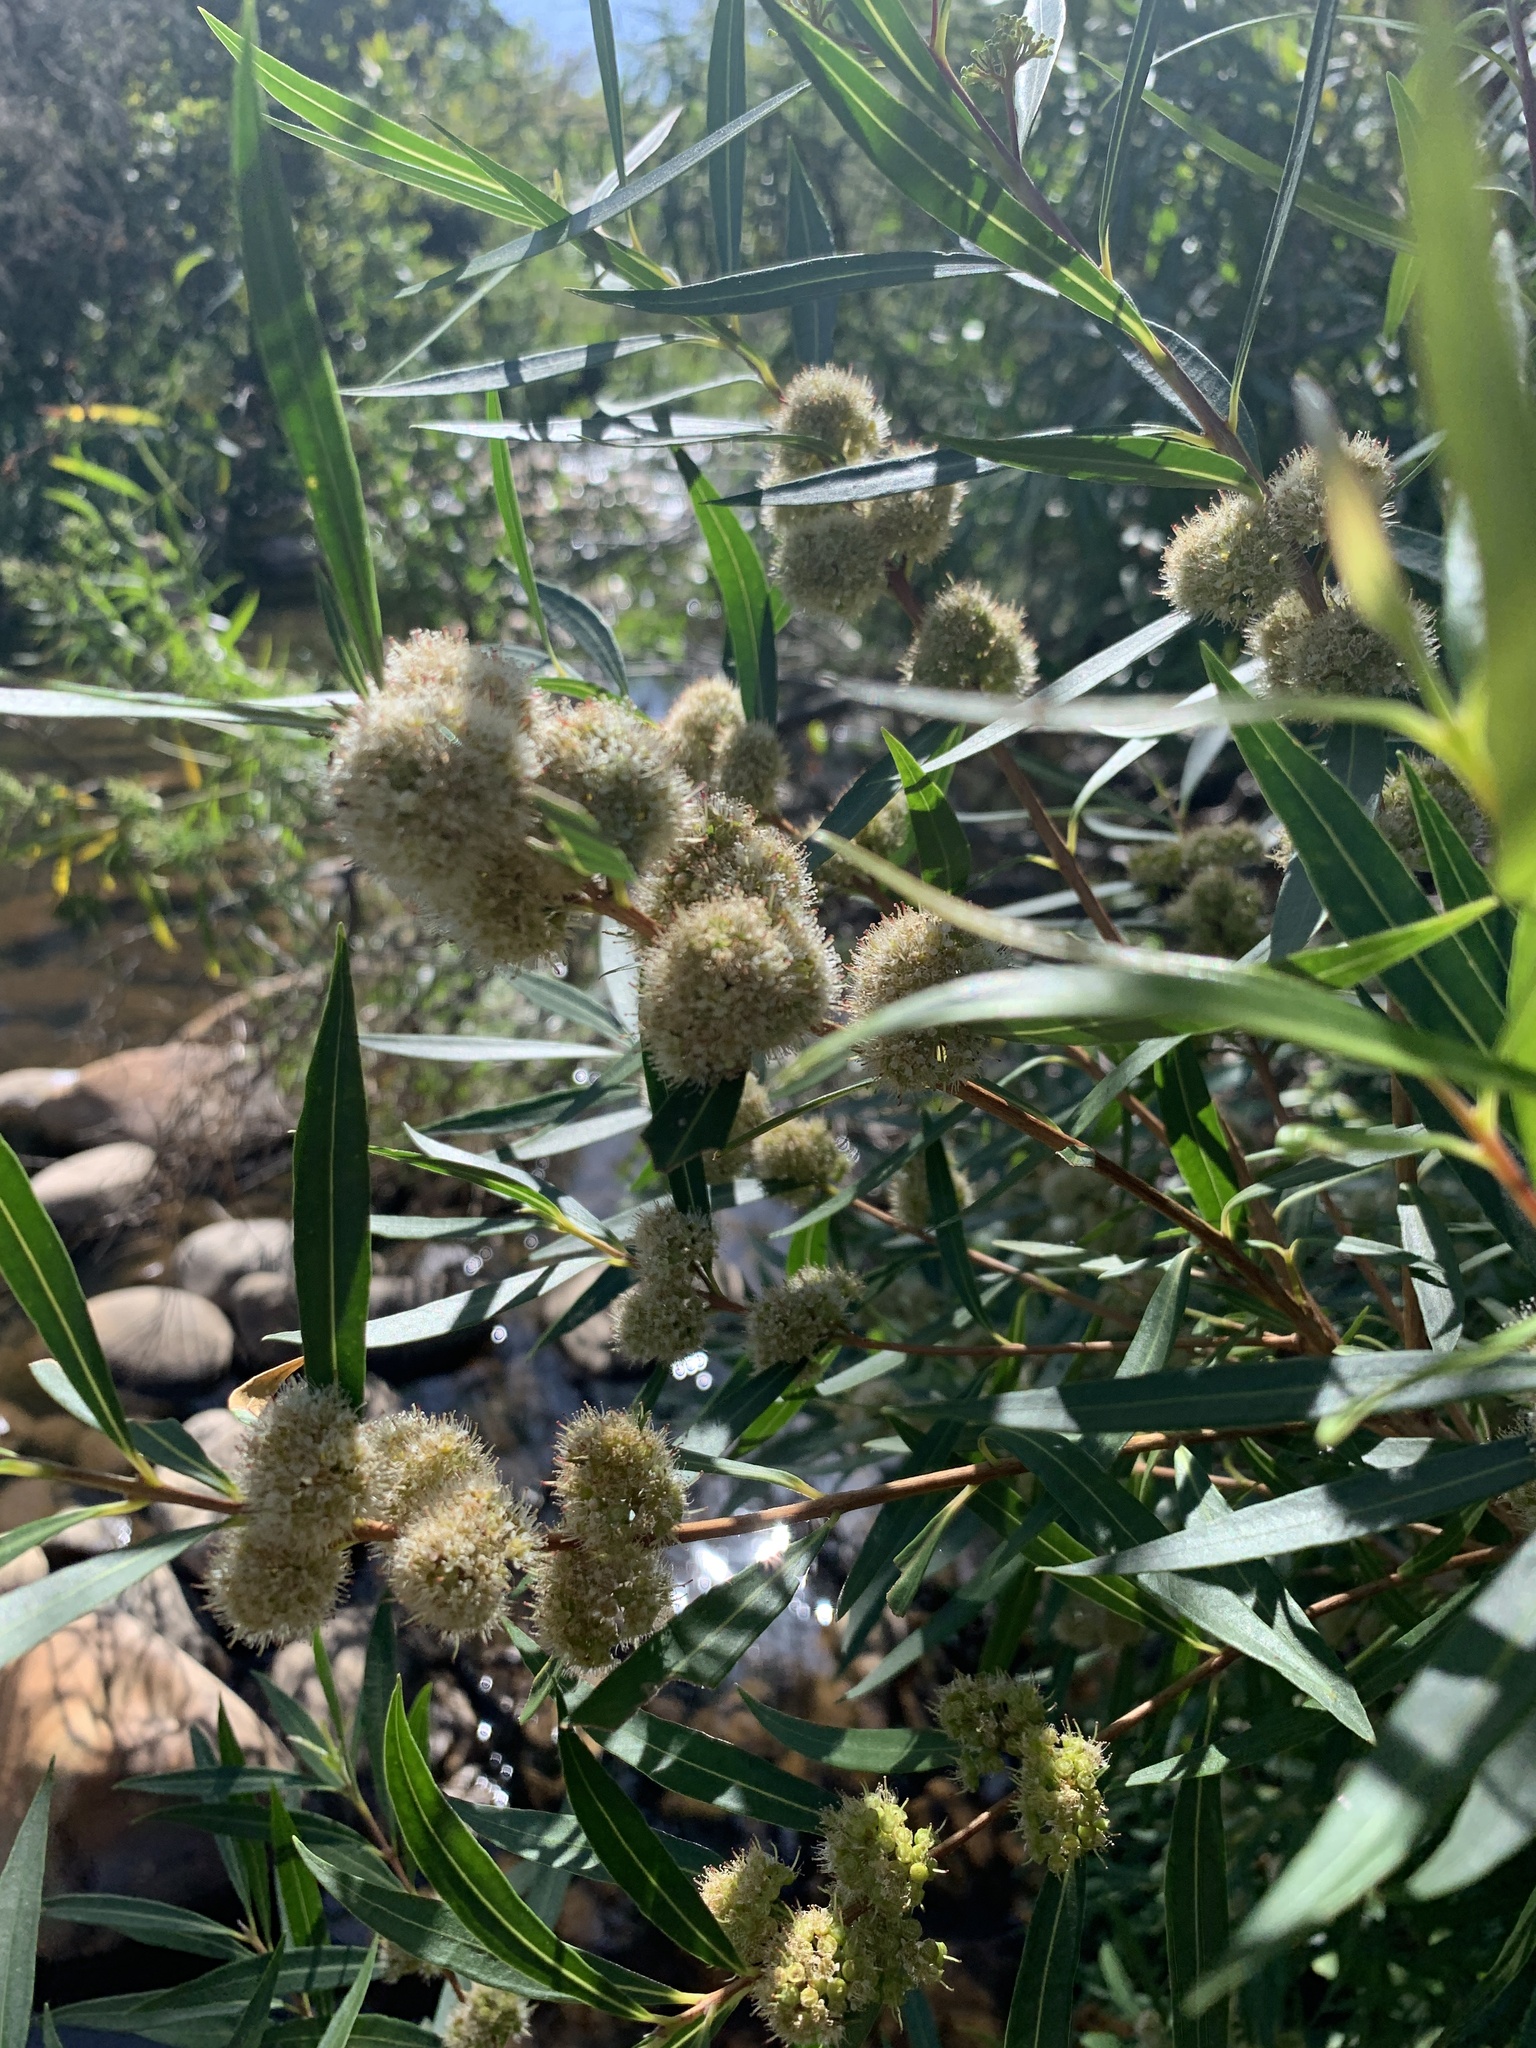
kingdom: Plantae
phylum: Tracheophyta
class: Magnoliopsida
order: Myrtales
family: Myrtaceae
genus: Callistemon
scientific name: Callistemon lanceolatus
